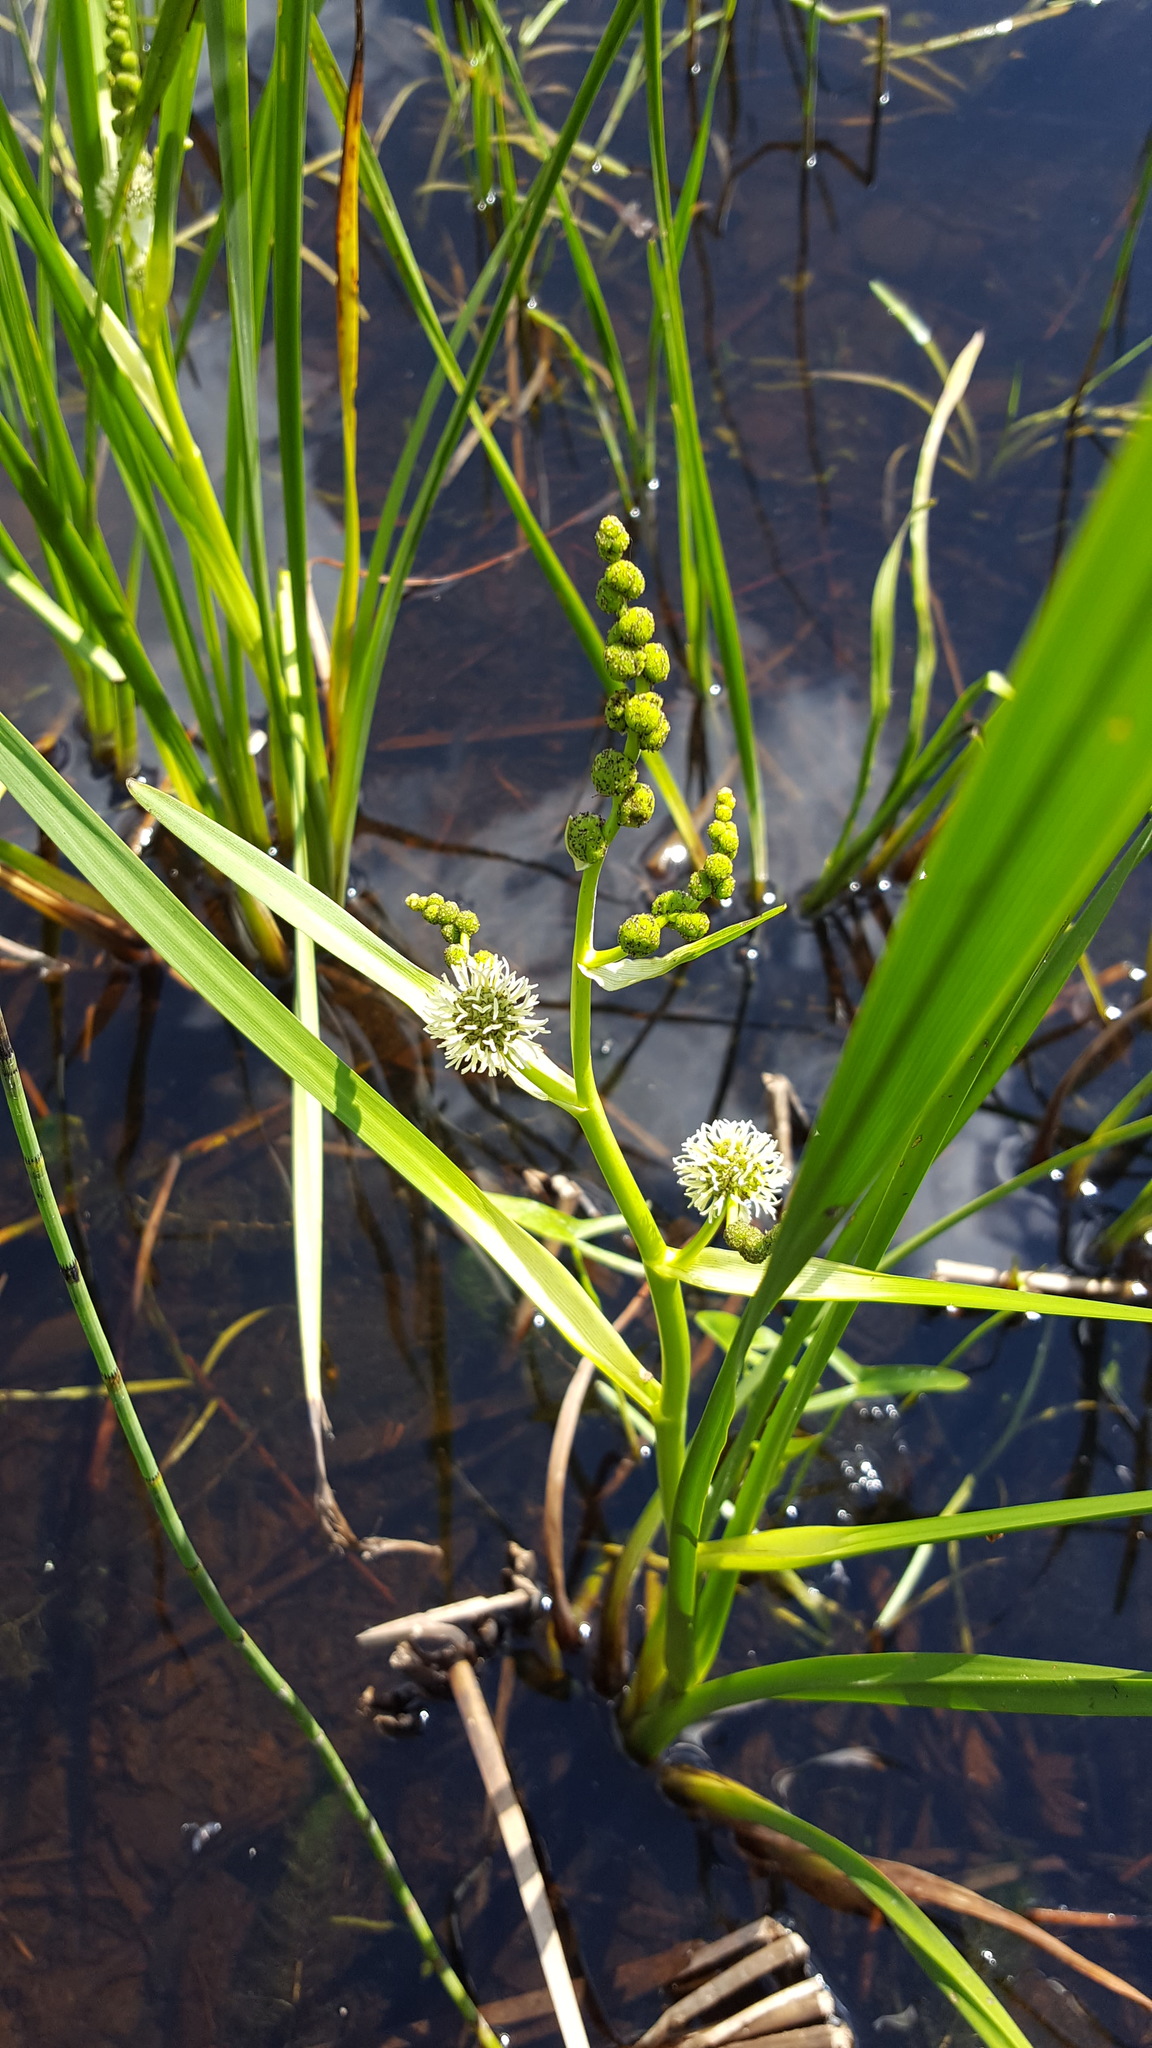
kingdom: Plantae
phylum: Tracheophyta
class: Liliopsida
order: Poales
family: Typhaceae
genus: Sparganium
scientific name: Sparganium americanum
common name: American burreed
